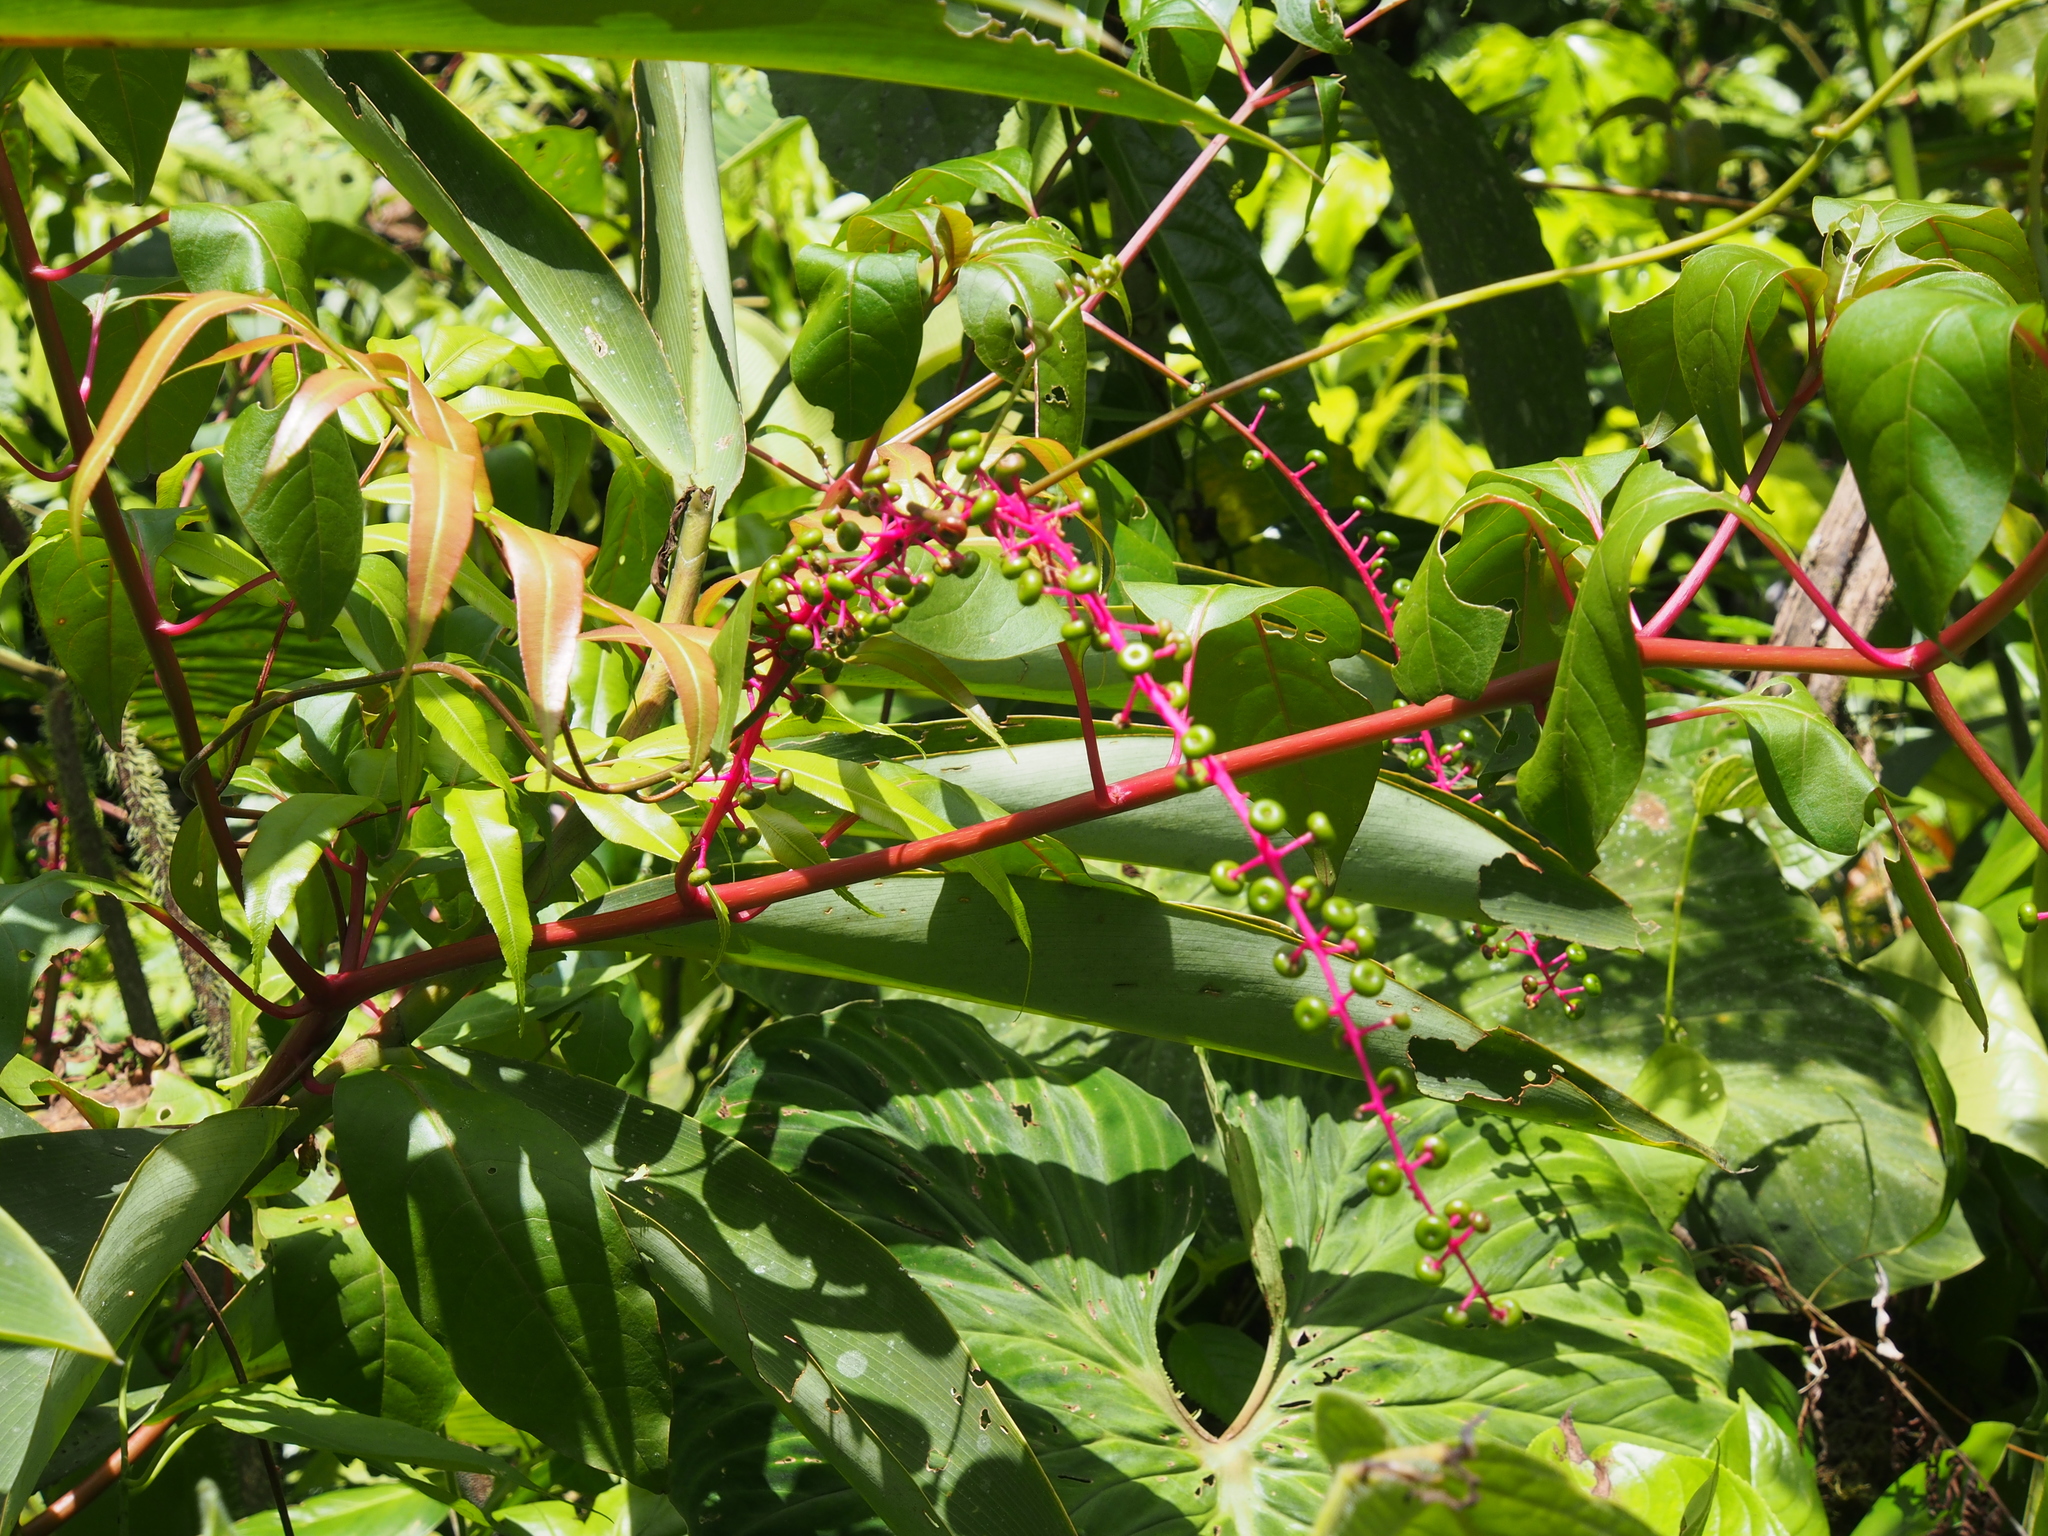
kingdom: Plantae
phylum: Tracheophyta
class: Magnoliopsida
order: Caryophyllales
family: Phytolaccaceae
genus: Phytolacca
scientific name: Phytolacca rivinoides
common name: Venezuelan pokeweed
